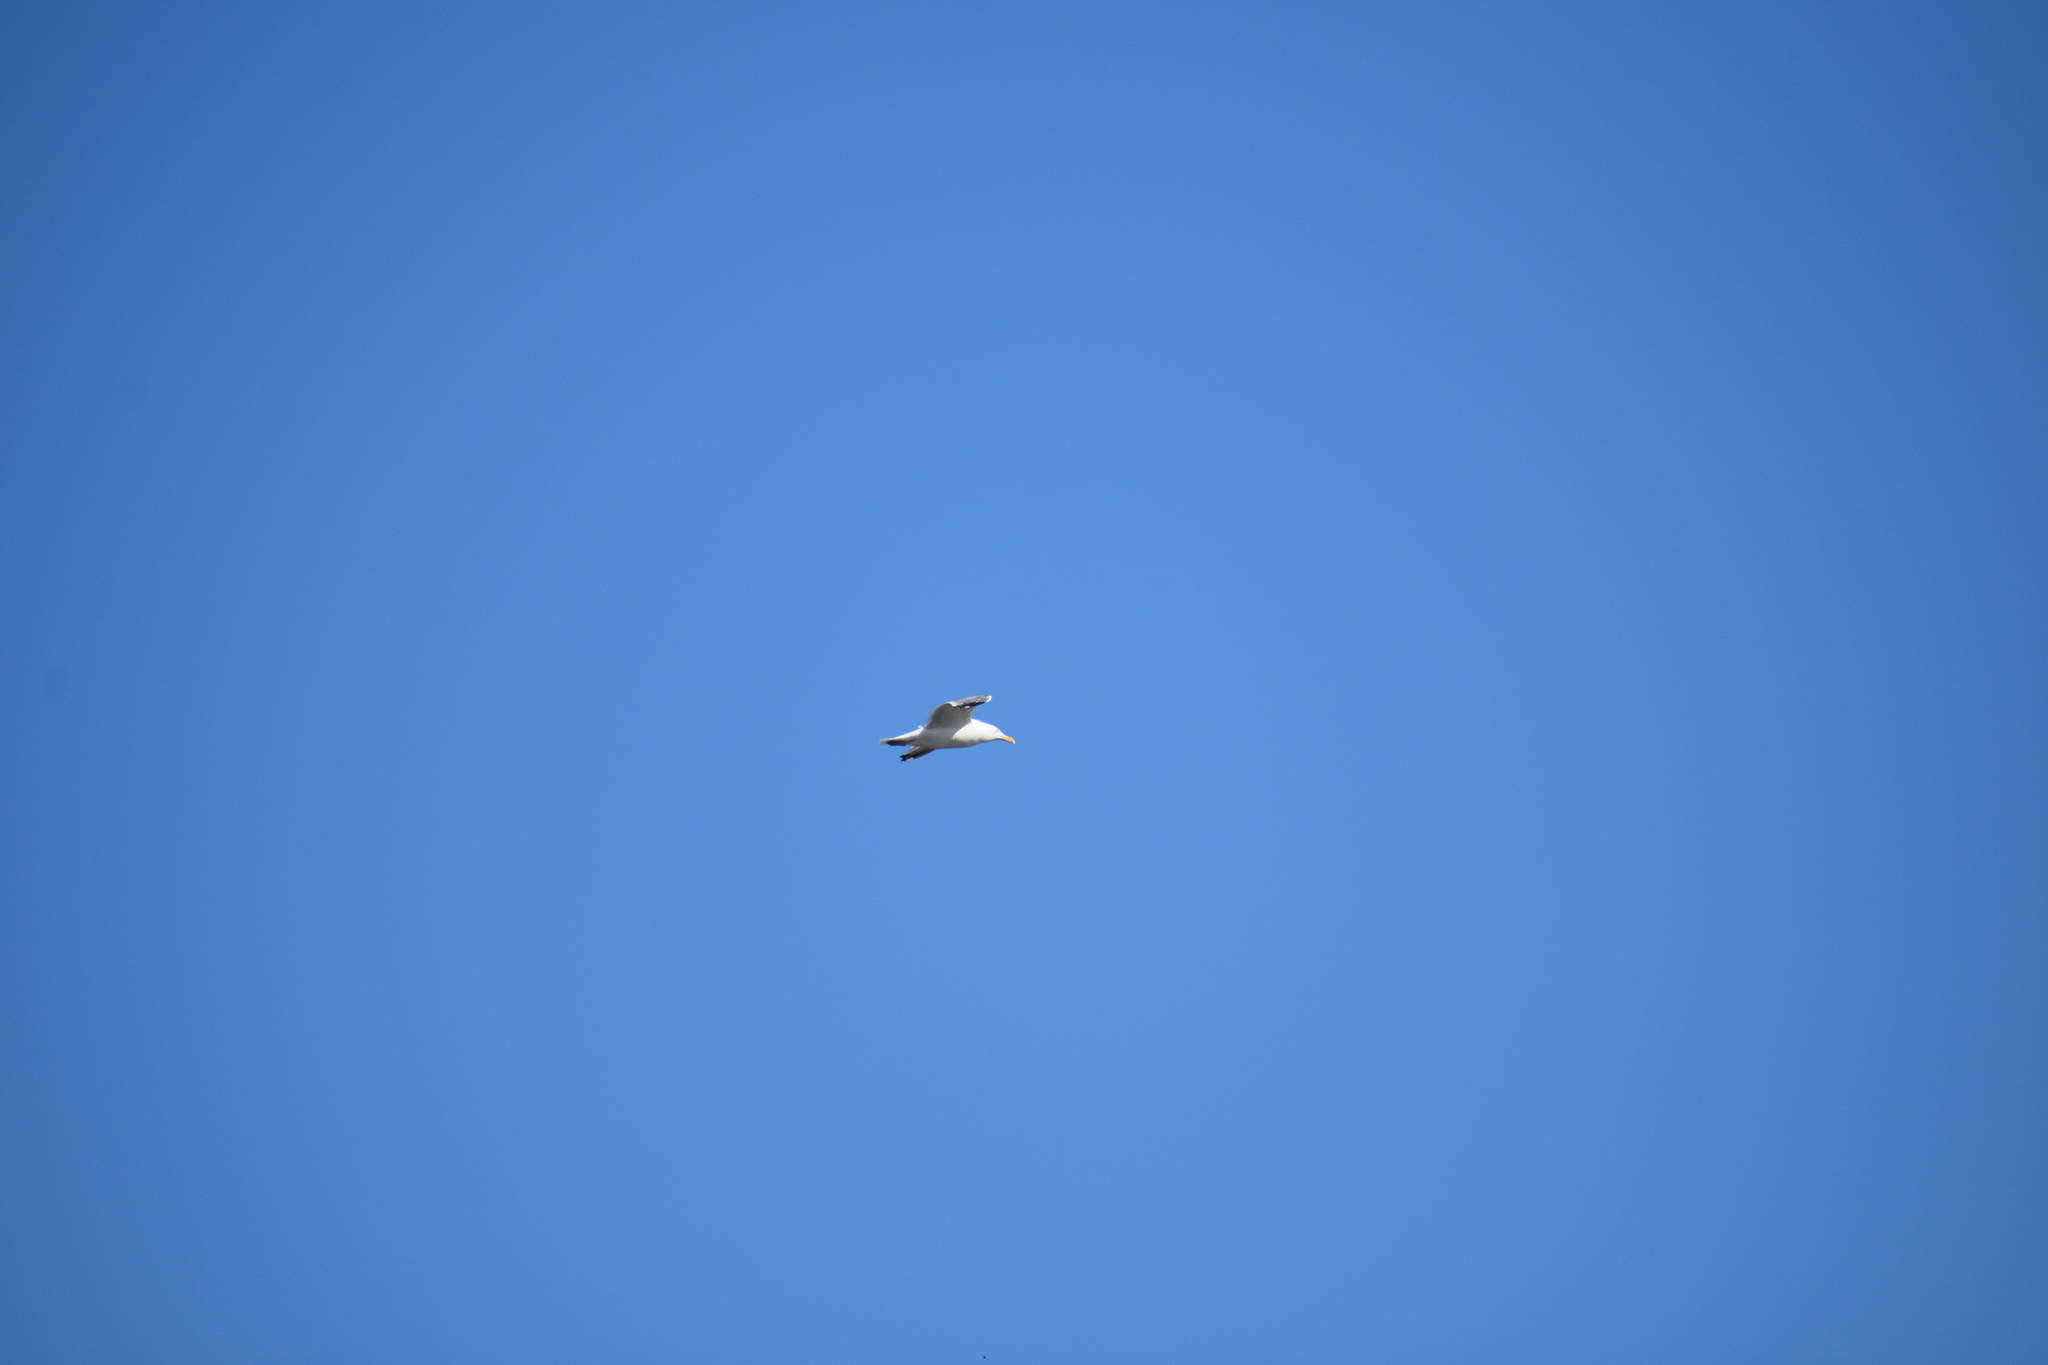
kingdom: Animalia
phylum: Chordata
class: Aves
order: Charadriiformes
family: Laridae
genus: Larus
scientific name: Larus delawarensis
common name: Ring-billed gull
